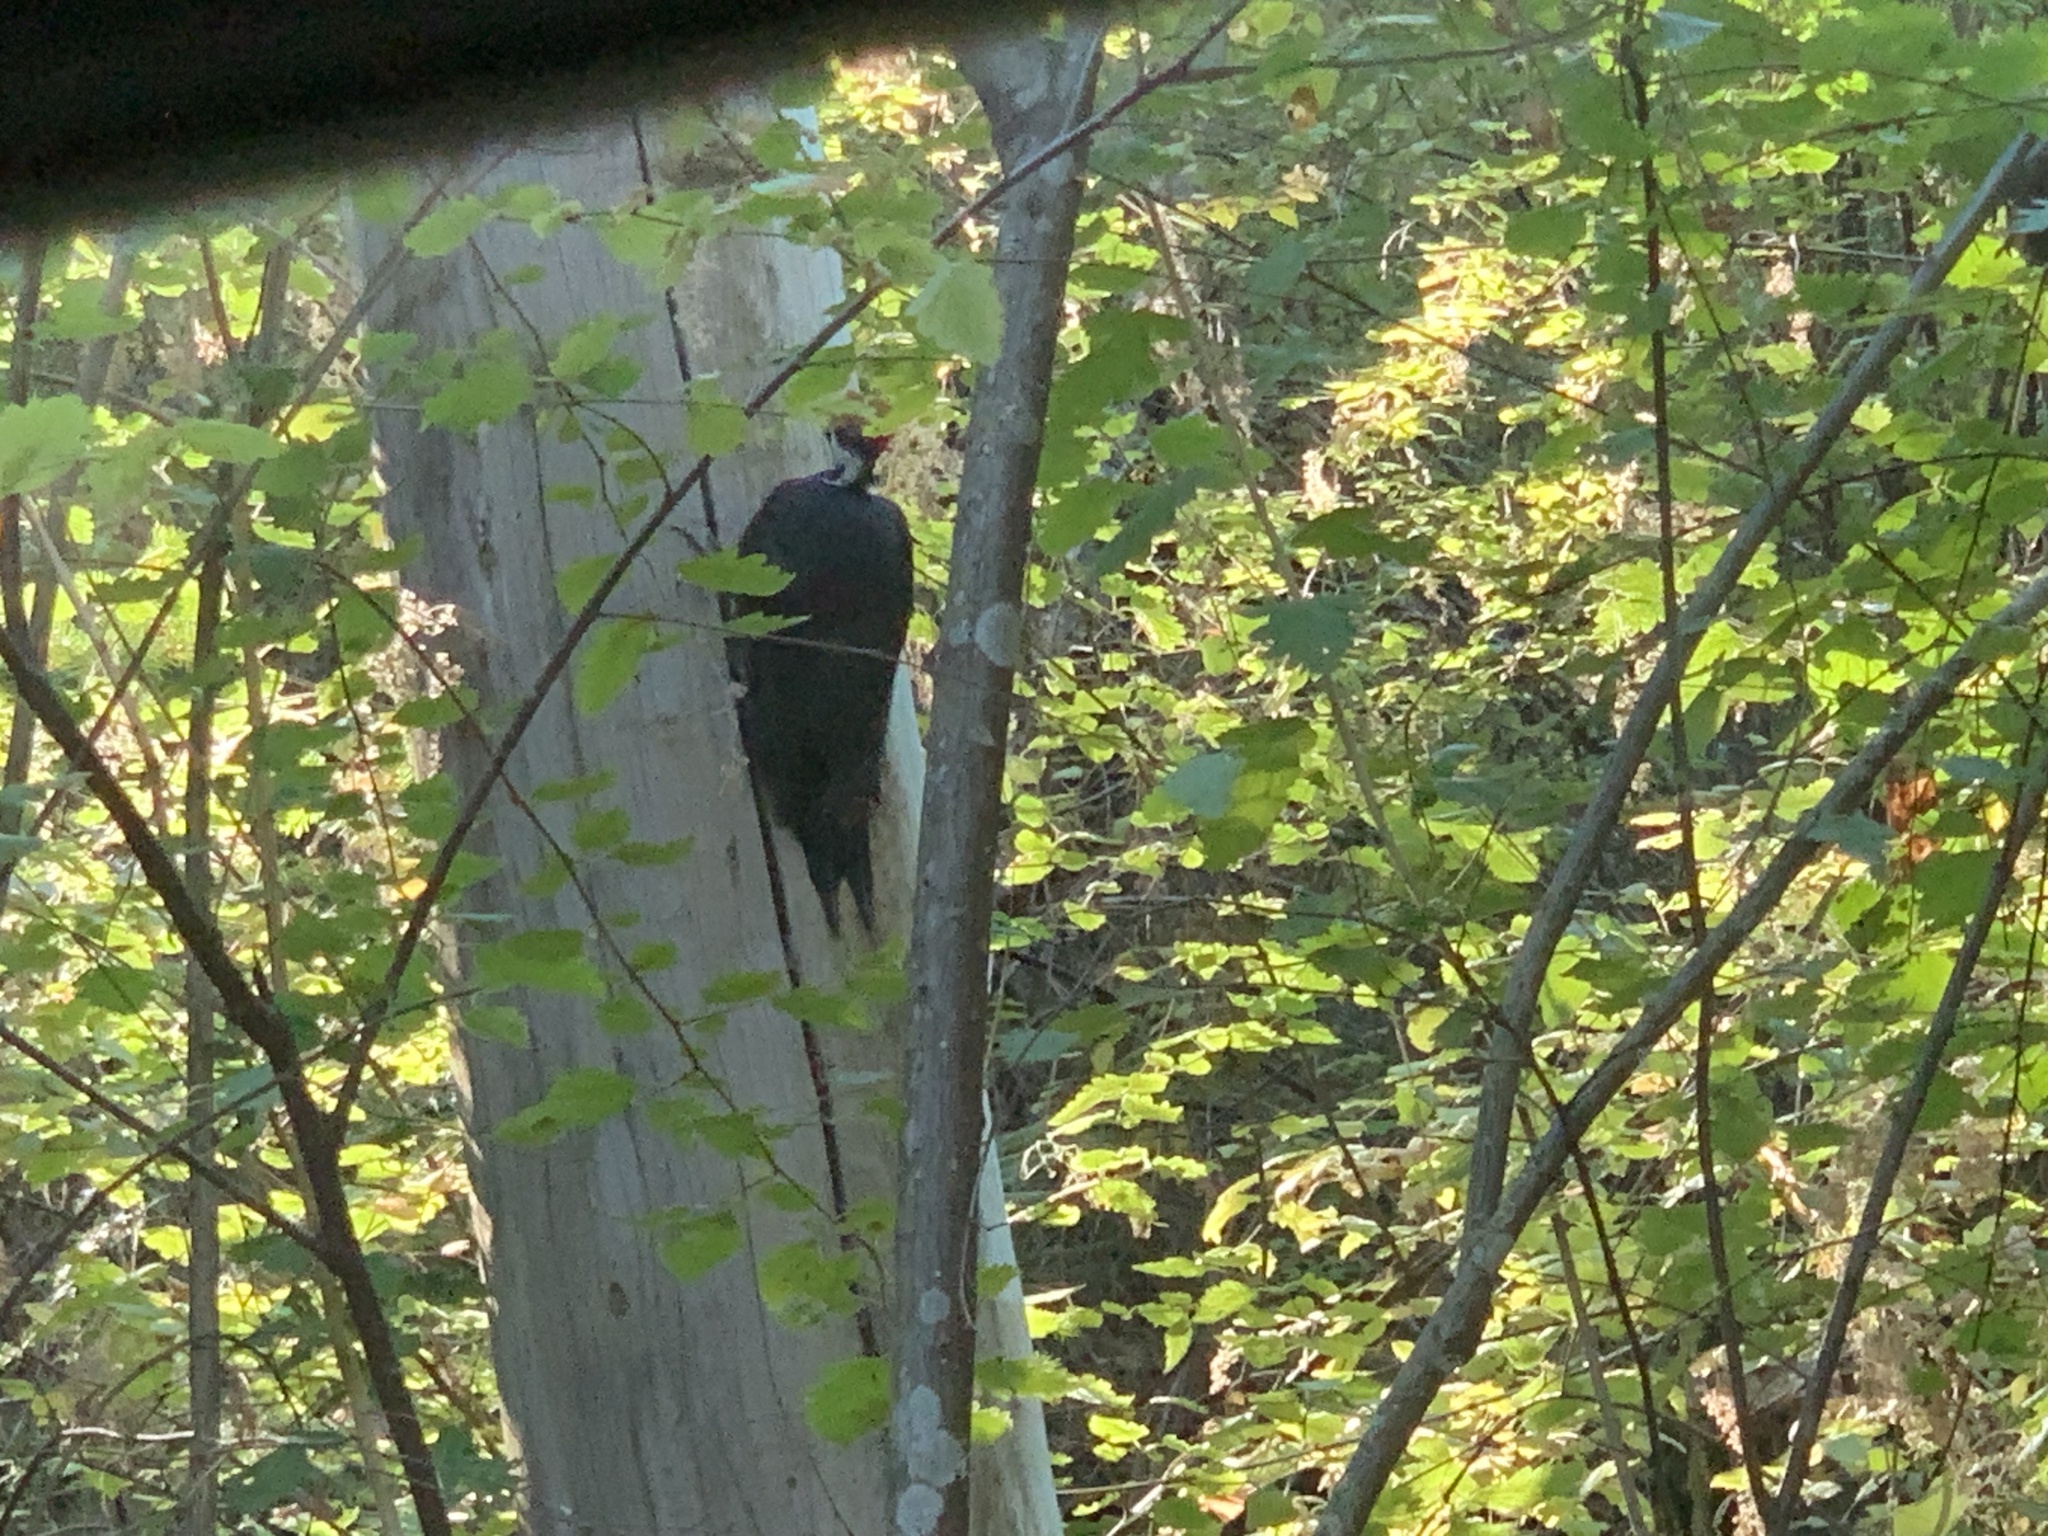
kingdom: Animalia
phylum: Chordata
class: Aves
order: Piciformes
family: Picidae
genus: Dryocopus
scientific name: Dryocopus pileatus
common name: Pileated woodpecker
